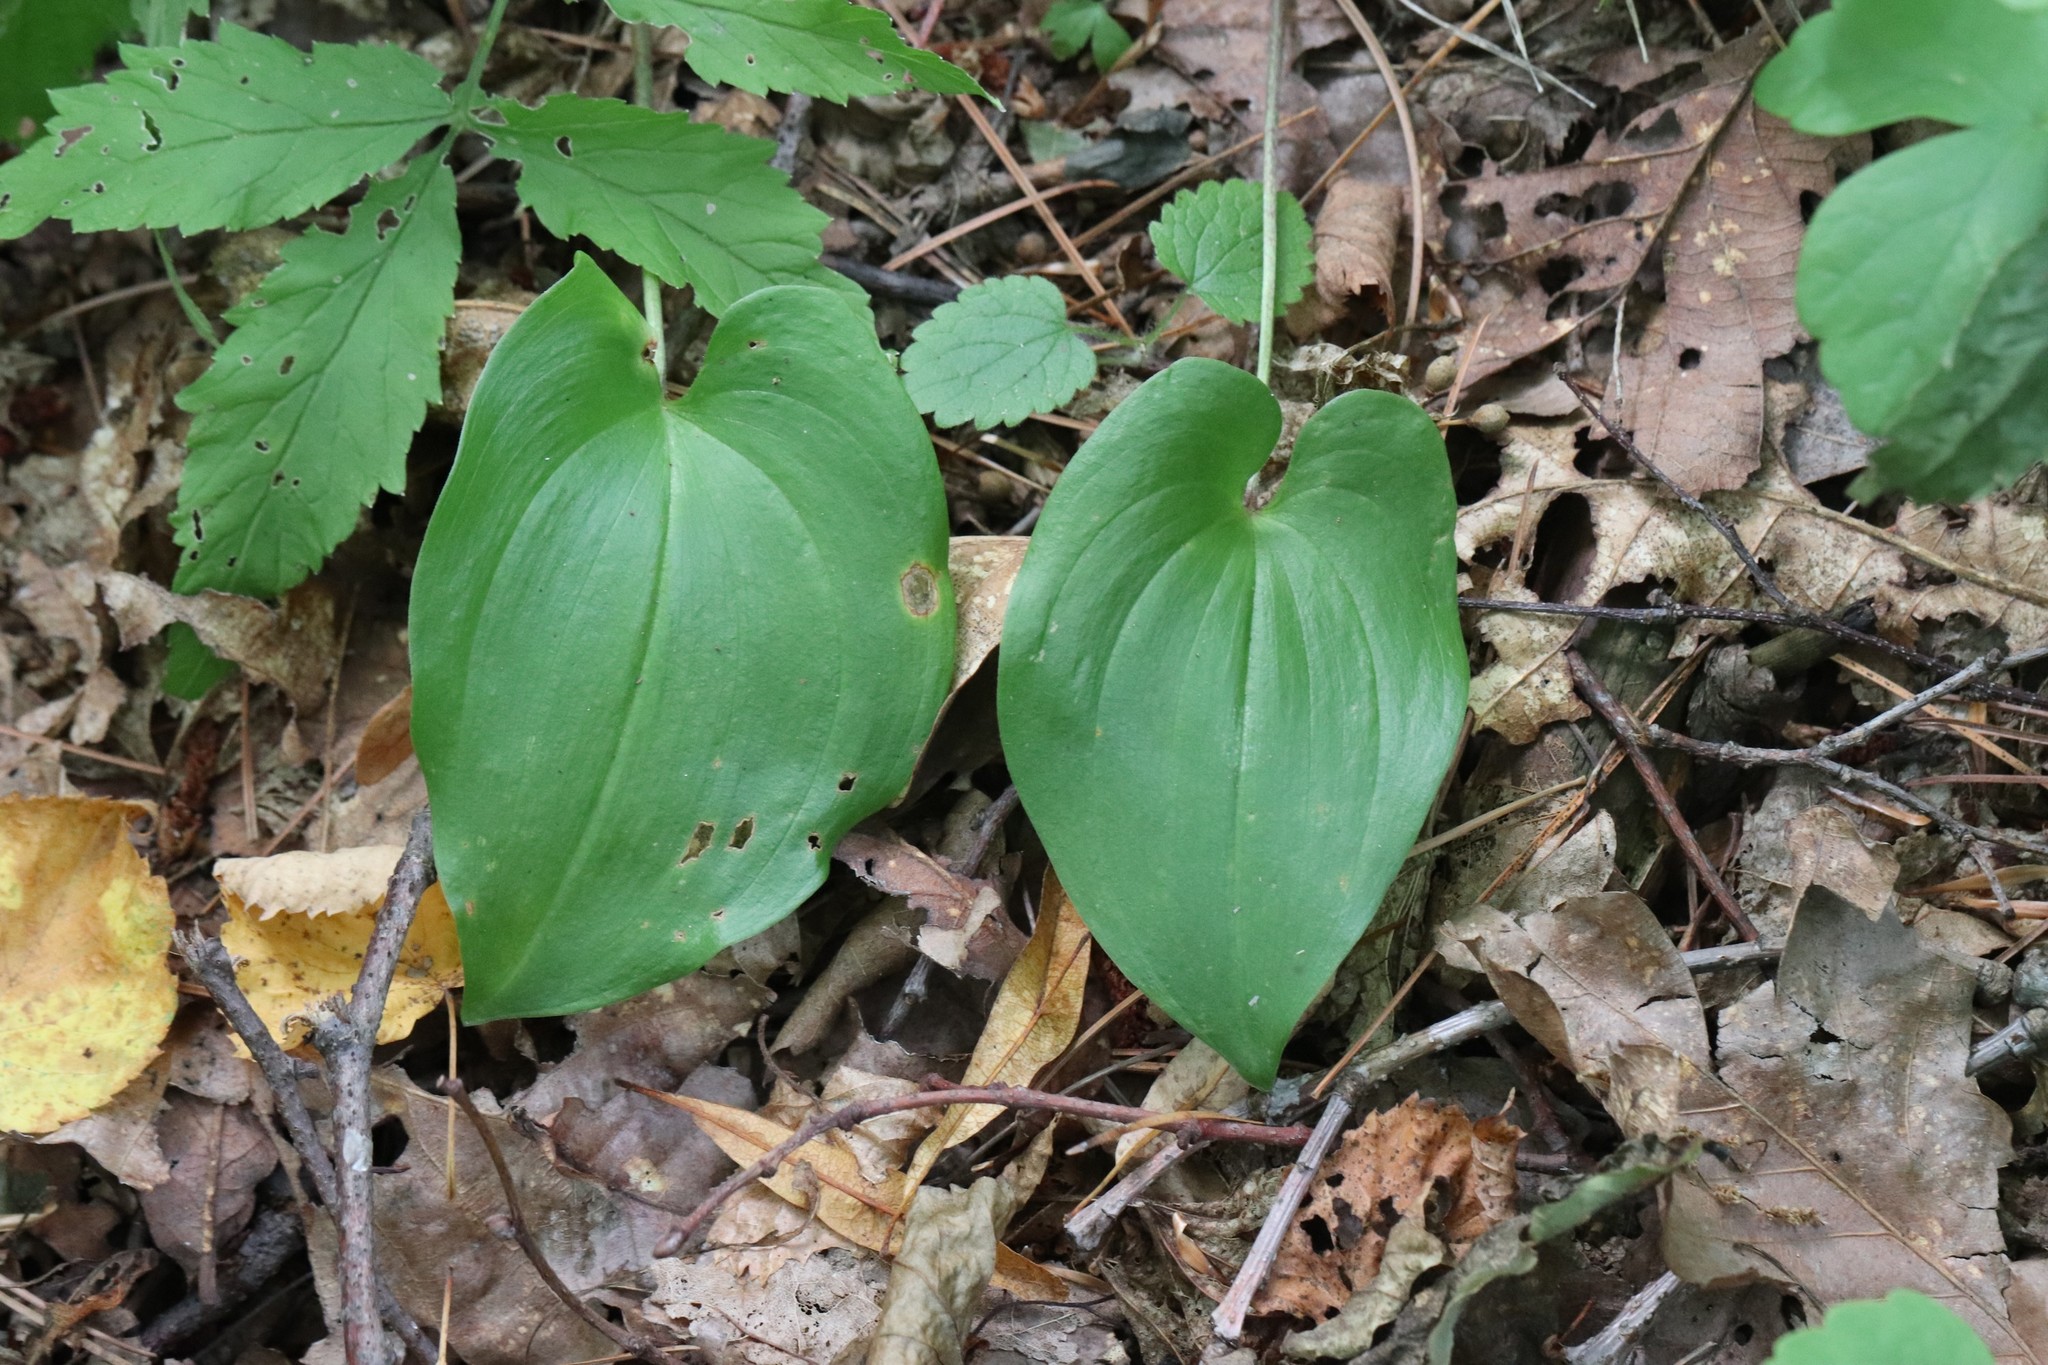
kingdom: Plantae
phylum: Tracheophyta
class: Liliopsida
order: Asparagales
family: Asparagaceae
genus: Maianthemum
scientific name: Maianthemum dilatatum
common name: False lily-of-the-valley
